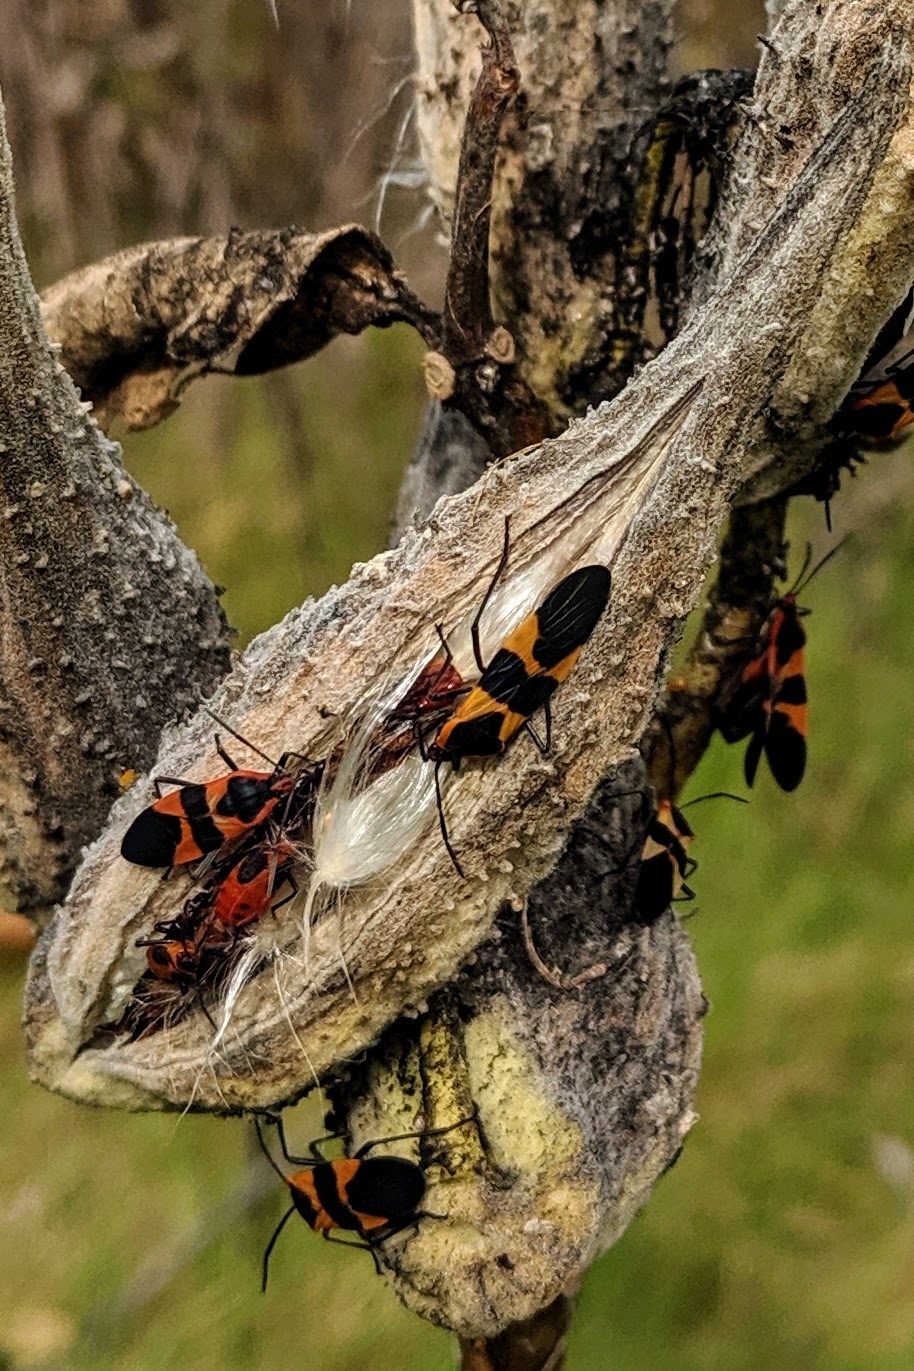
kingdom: Plantae
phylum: Tracheophyta
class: Magnoliopsida
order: Gentianales
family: Apocynaceae
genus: Asclepias
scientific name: Asclepias syriaca
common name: Common milkweed
